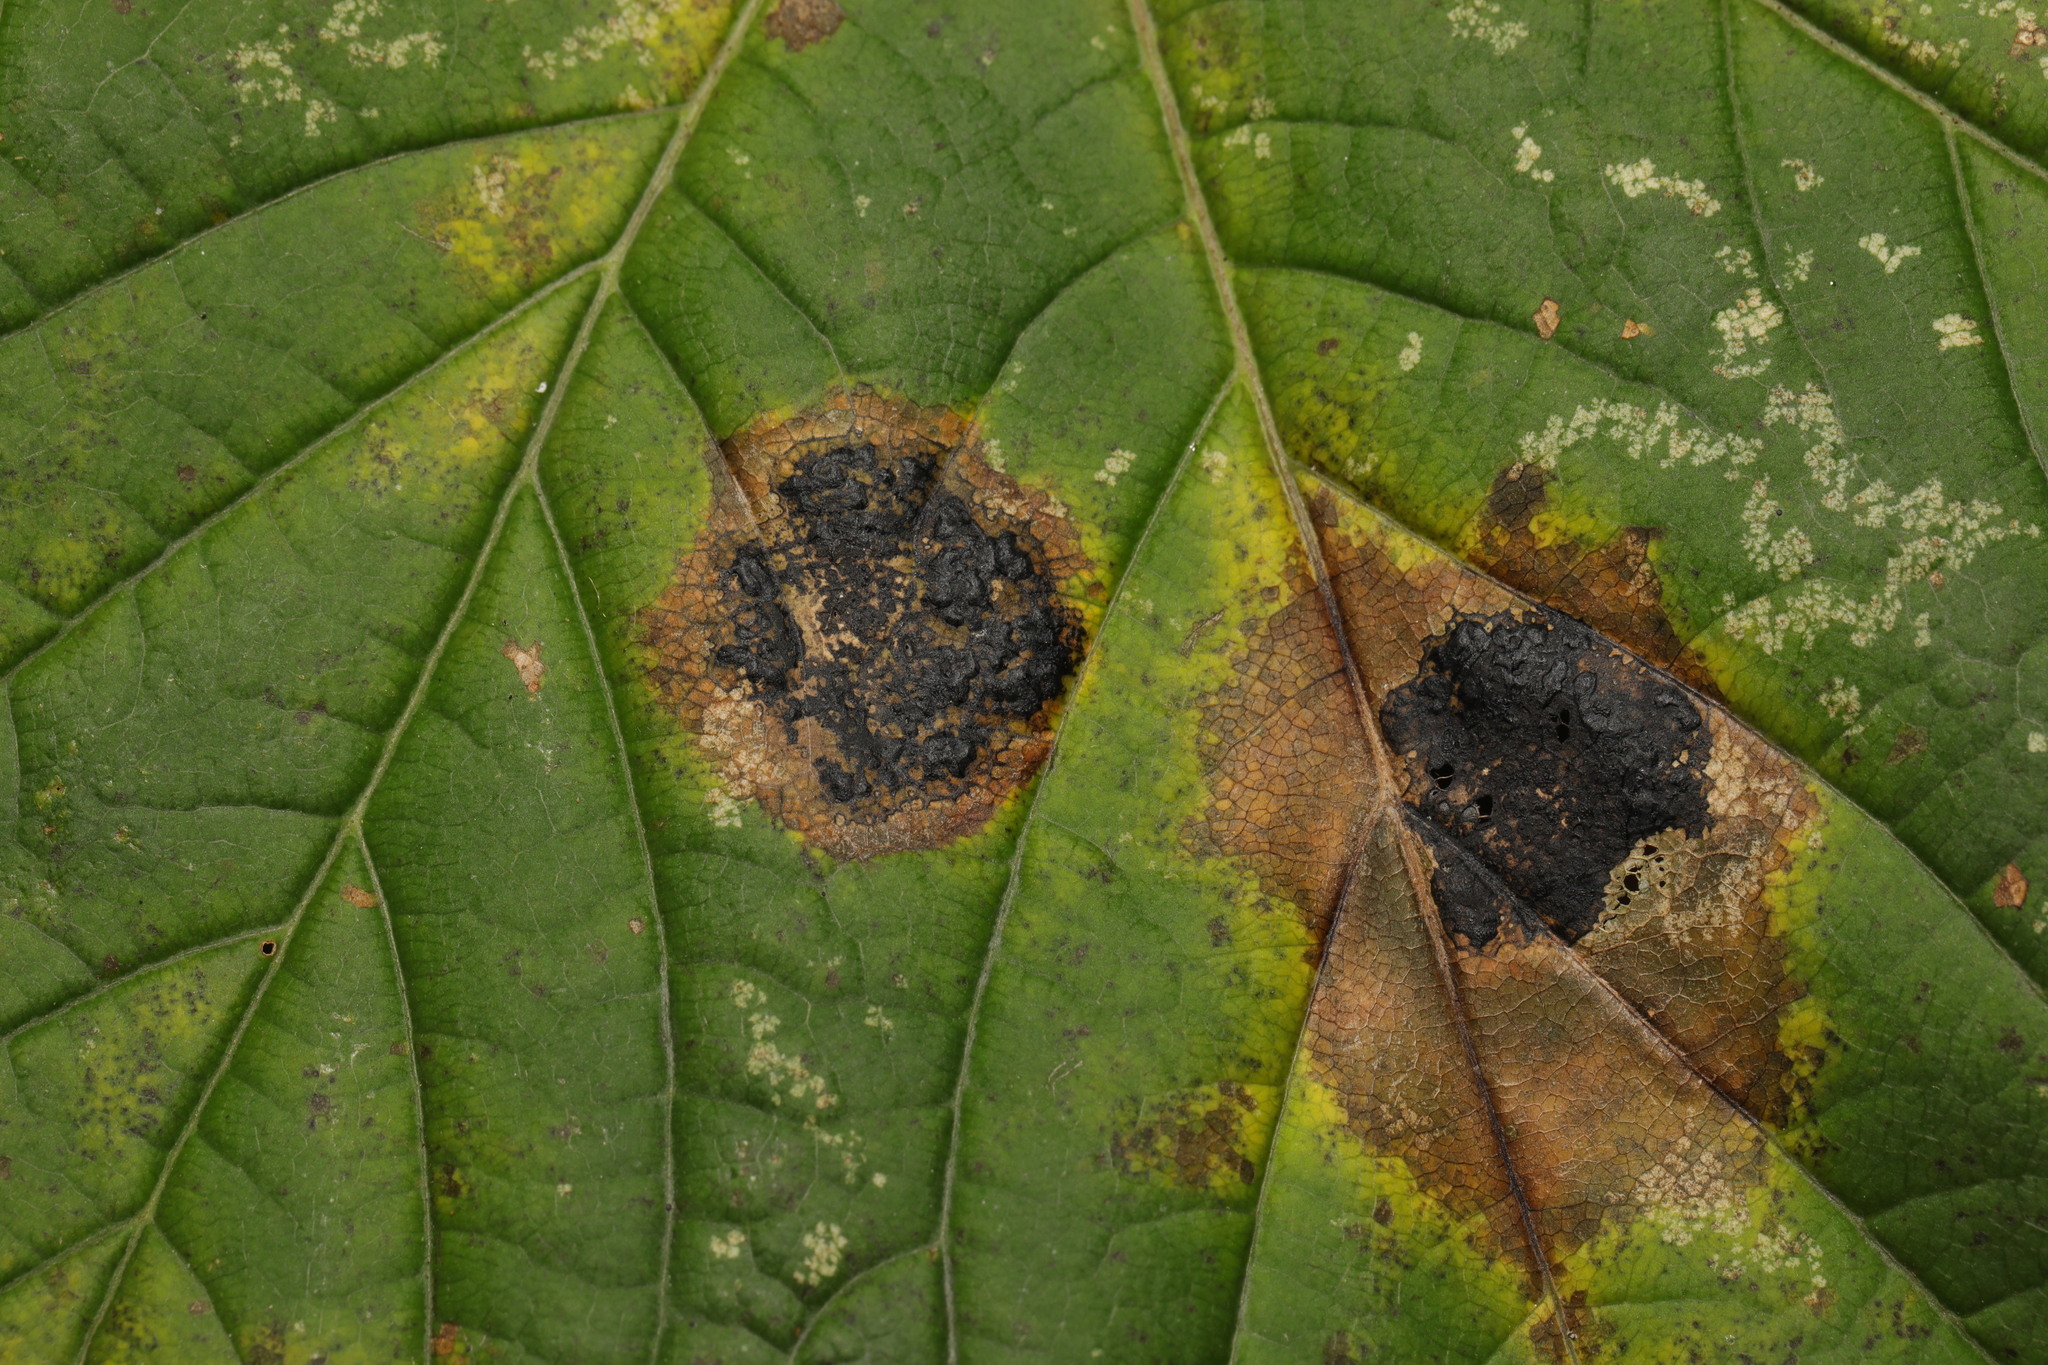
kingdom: Fungi
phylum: Ascomycota
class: Leotiomycetes
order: Rhytismatales
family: Rhytismataceae
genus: Rhytisma
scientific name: Rhytisma acerinum
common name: European tar spot
